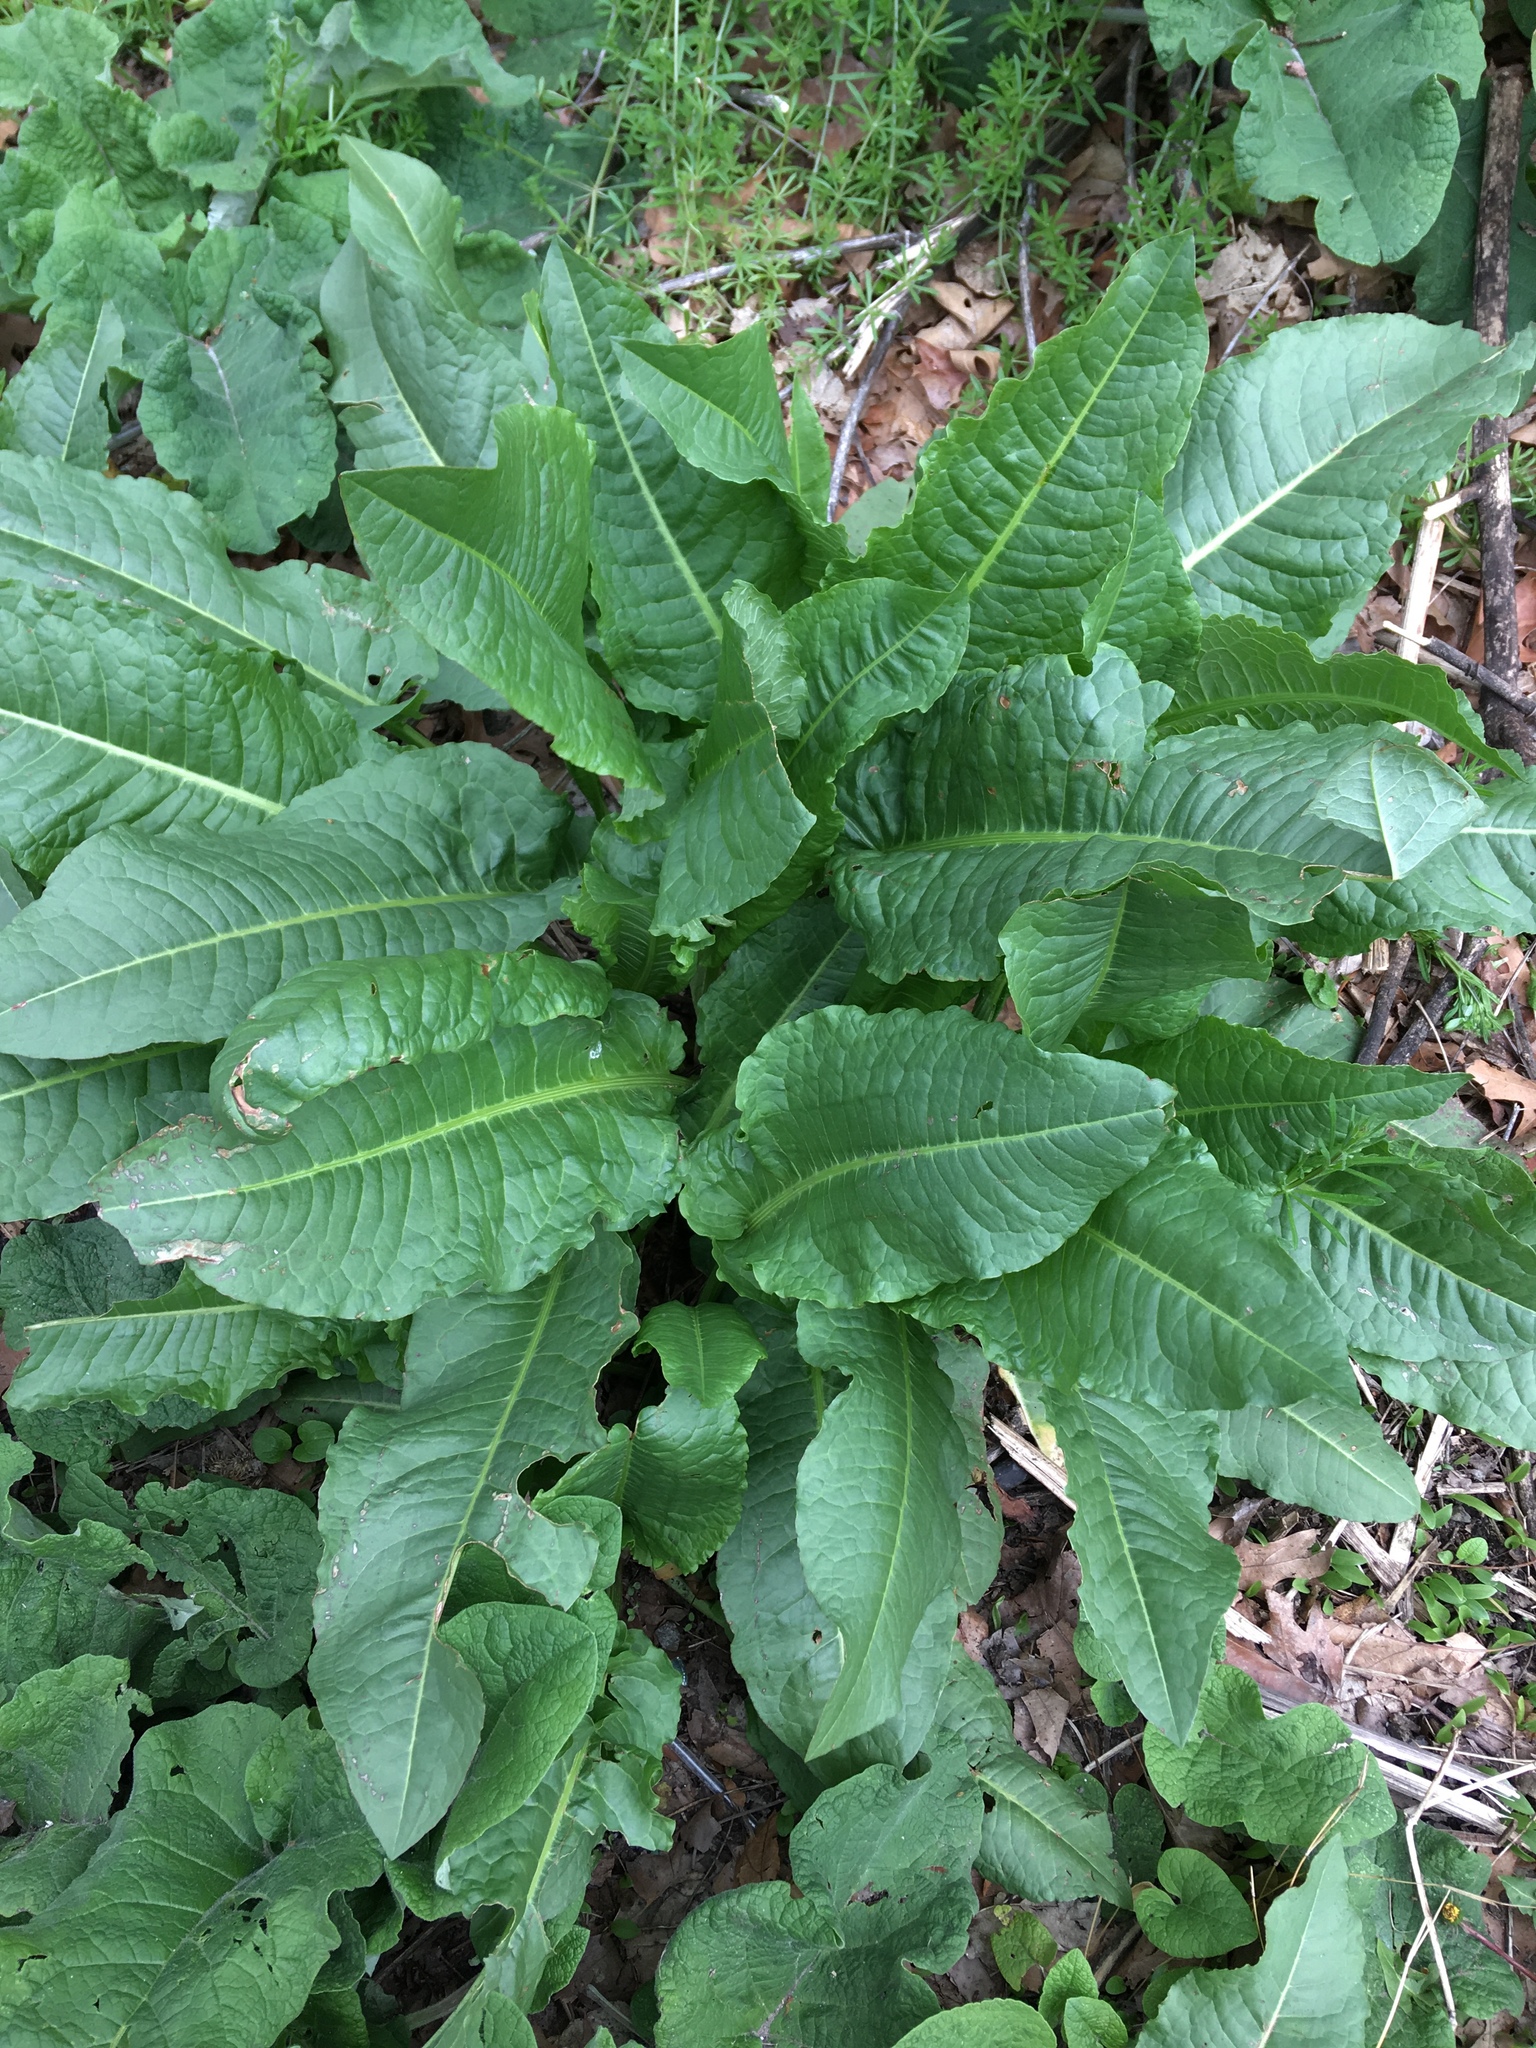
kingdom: Plantae
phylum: Tracheophyta
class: Magnoliopsida
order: Caryophyllales
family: Polygonaceae
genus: Rumex
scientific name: Rumex crispus
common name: Curled dock
